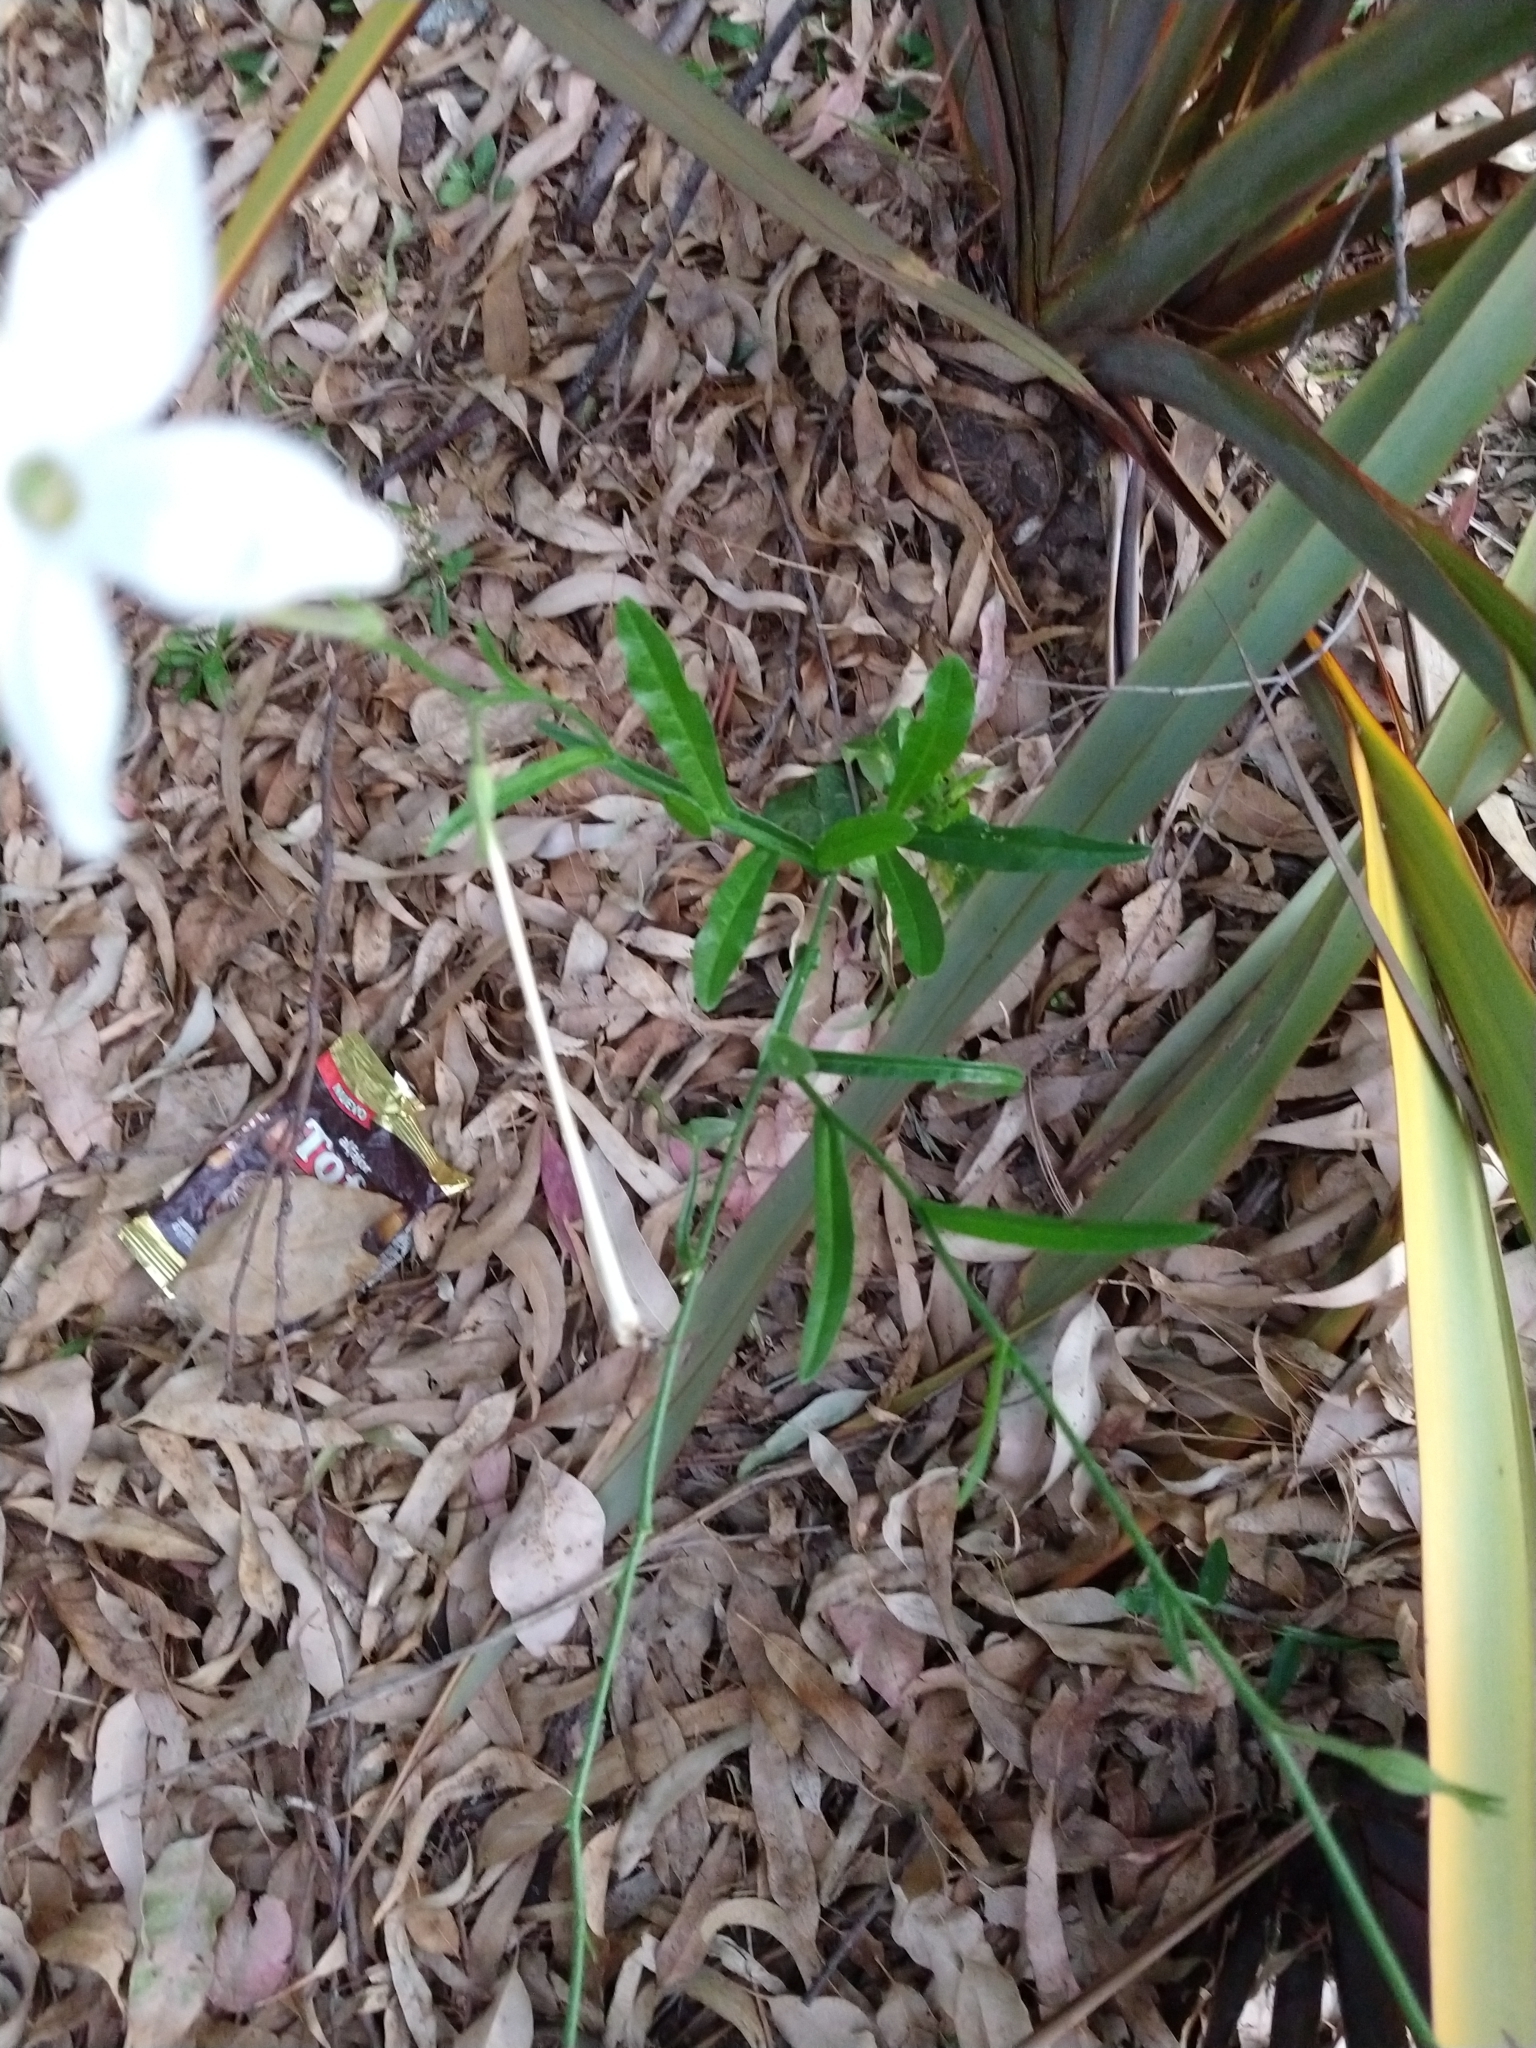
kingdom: Plantae
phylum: Tracheophyta
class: Magnoliopsida
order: Solanales
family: Solanaceae
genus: Nicotiana
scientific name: Nicotiana longiflora
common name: Long-flowered tobacco
